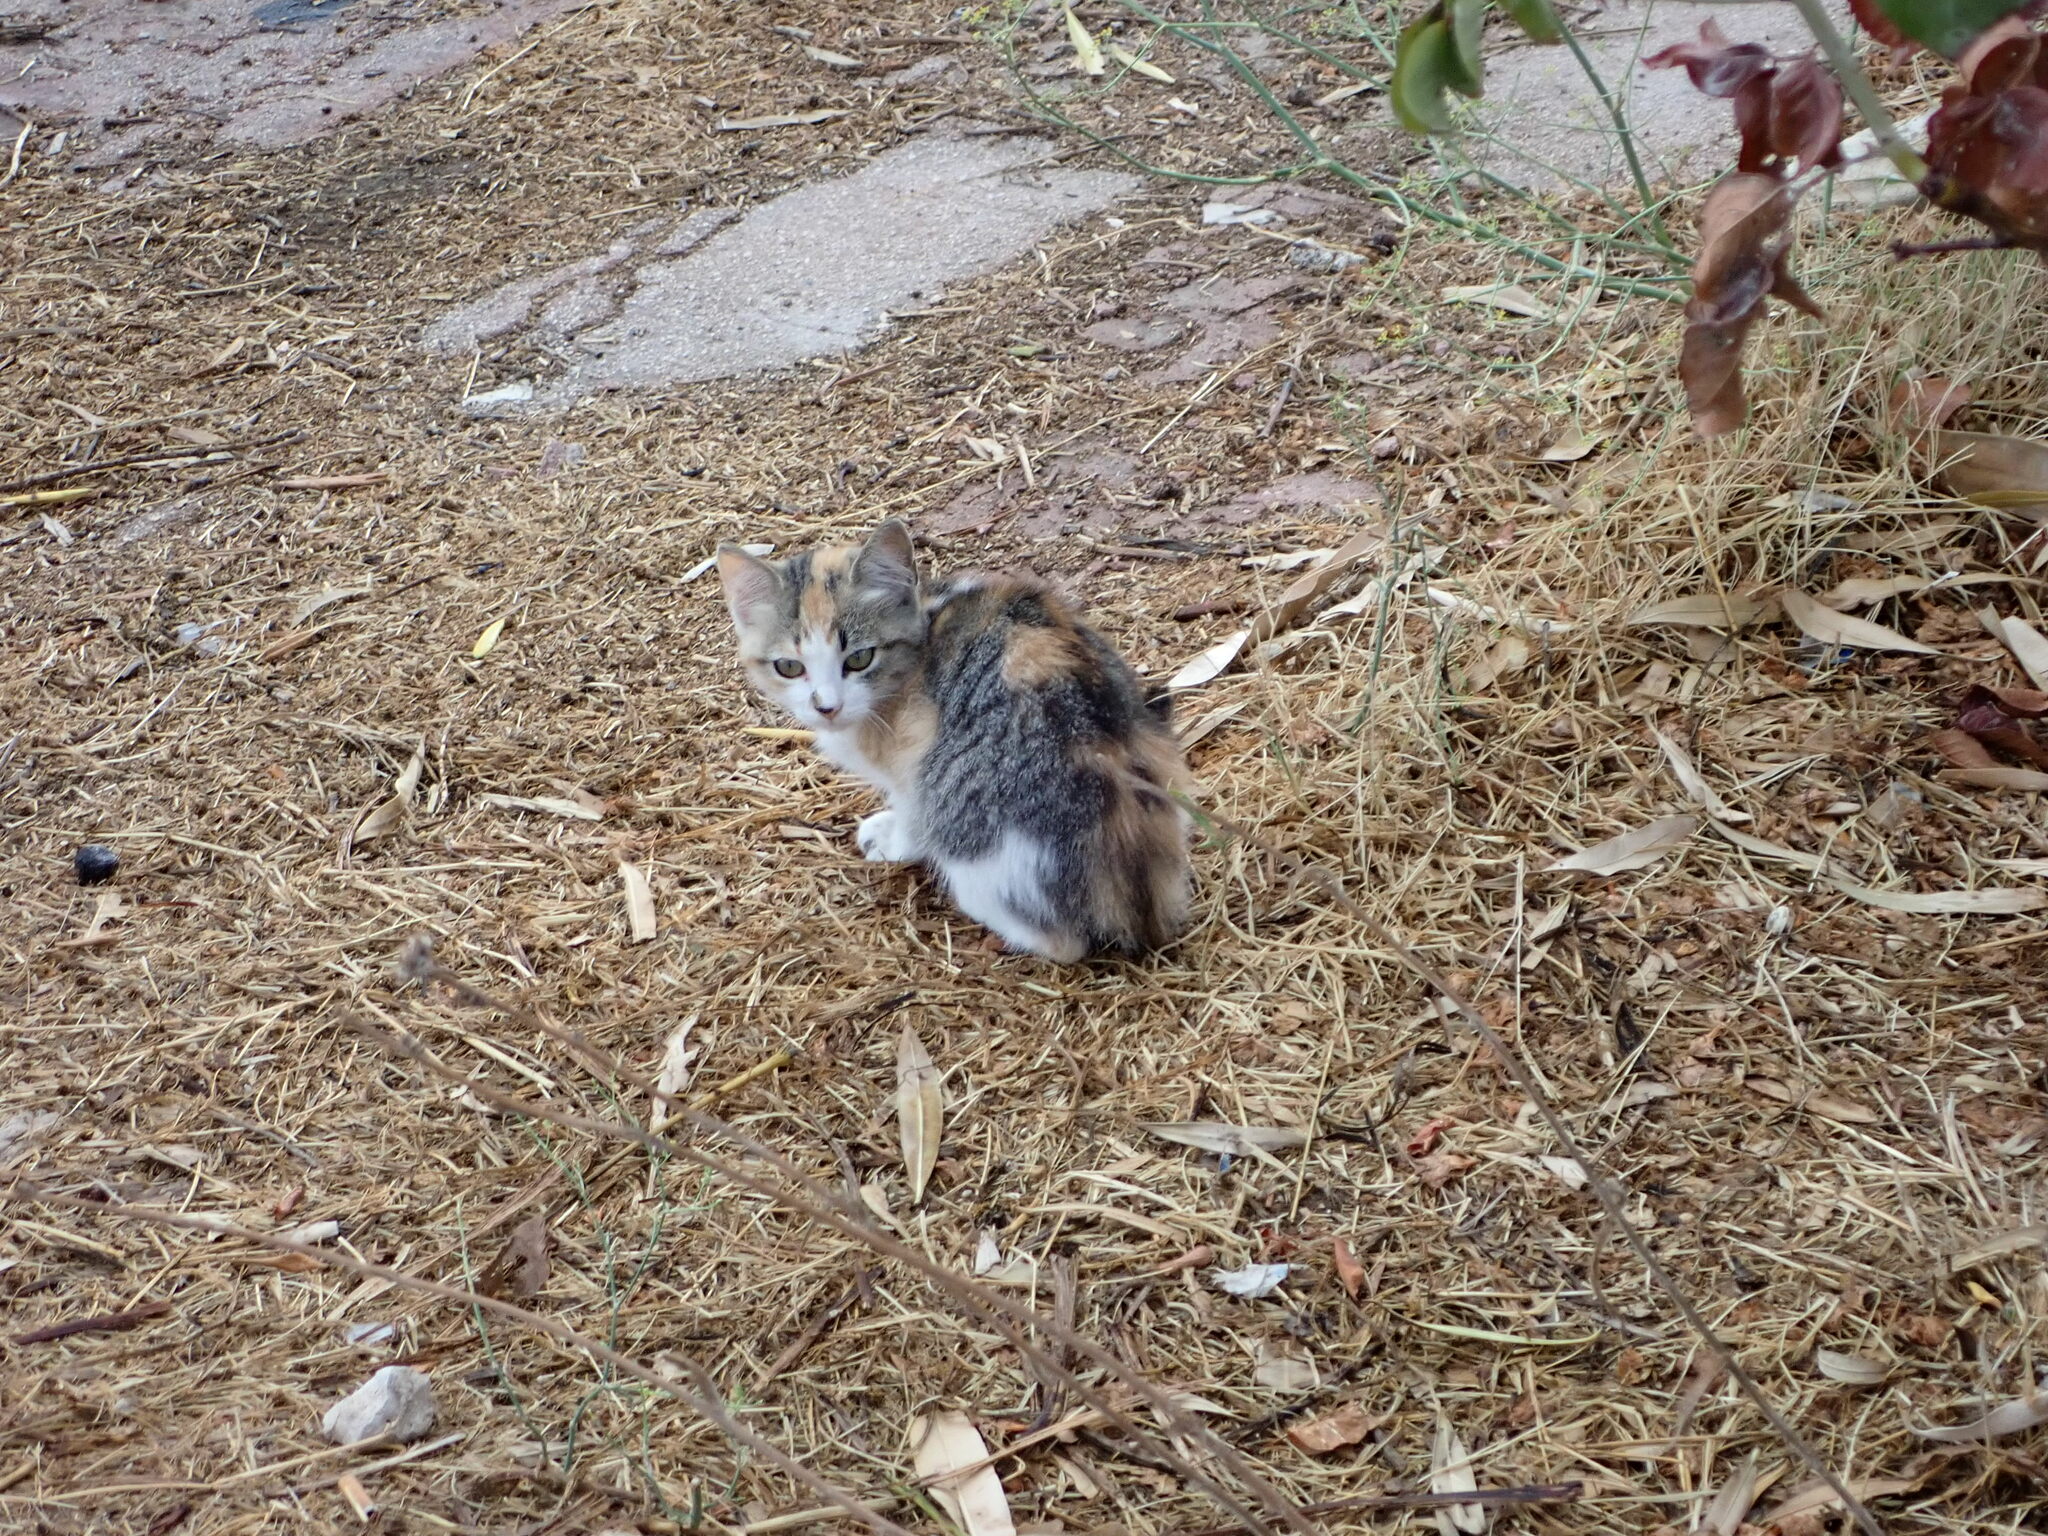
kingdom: Animalia
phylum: Chordata
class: Mammalia
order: Carnivora
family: Felidae
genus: Felis
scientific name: Felis catus
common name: Domestic cat
